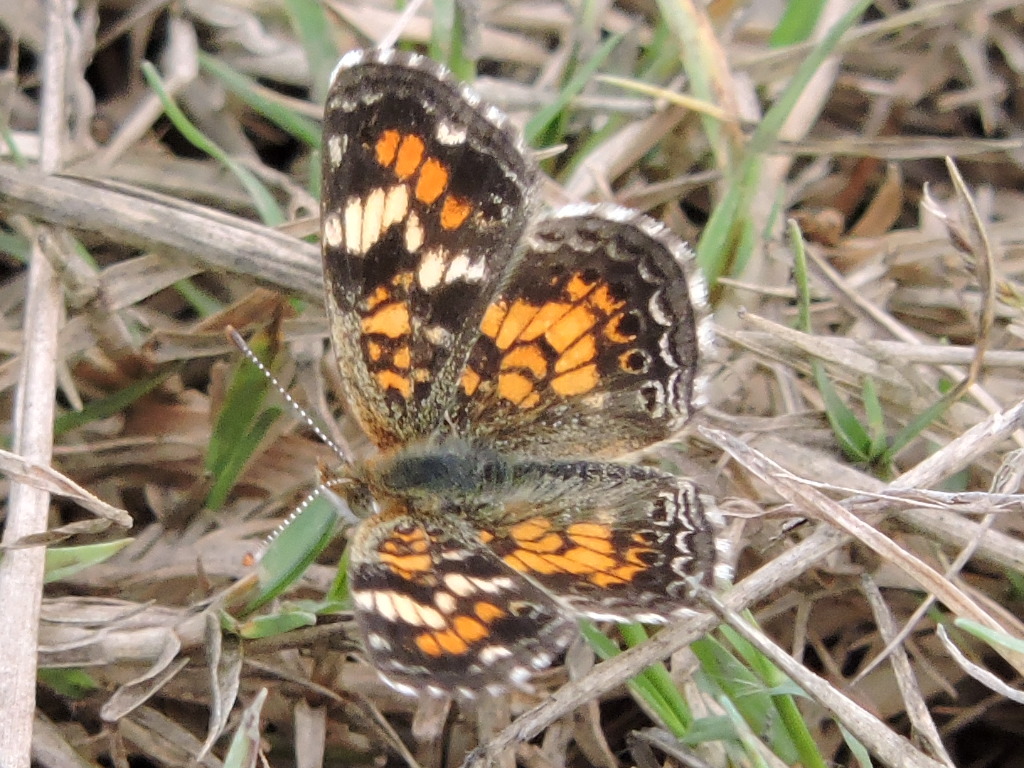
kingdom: Animalia
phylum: Arthropoda
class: Insecta
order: Lepidoptera
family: Nymphalidae
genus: Phyciodes
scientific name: Phyciodes phaon
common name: Phaon crescent
